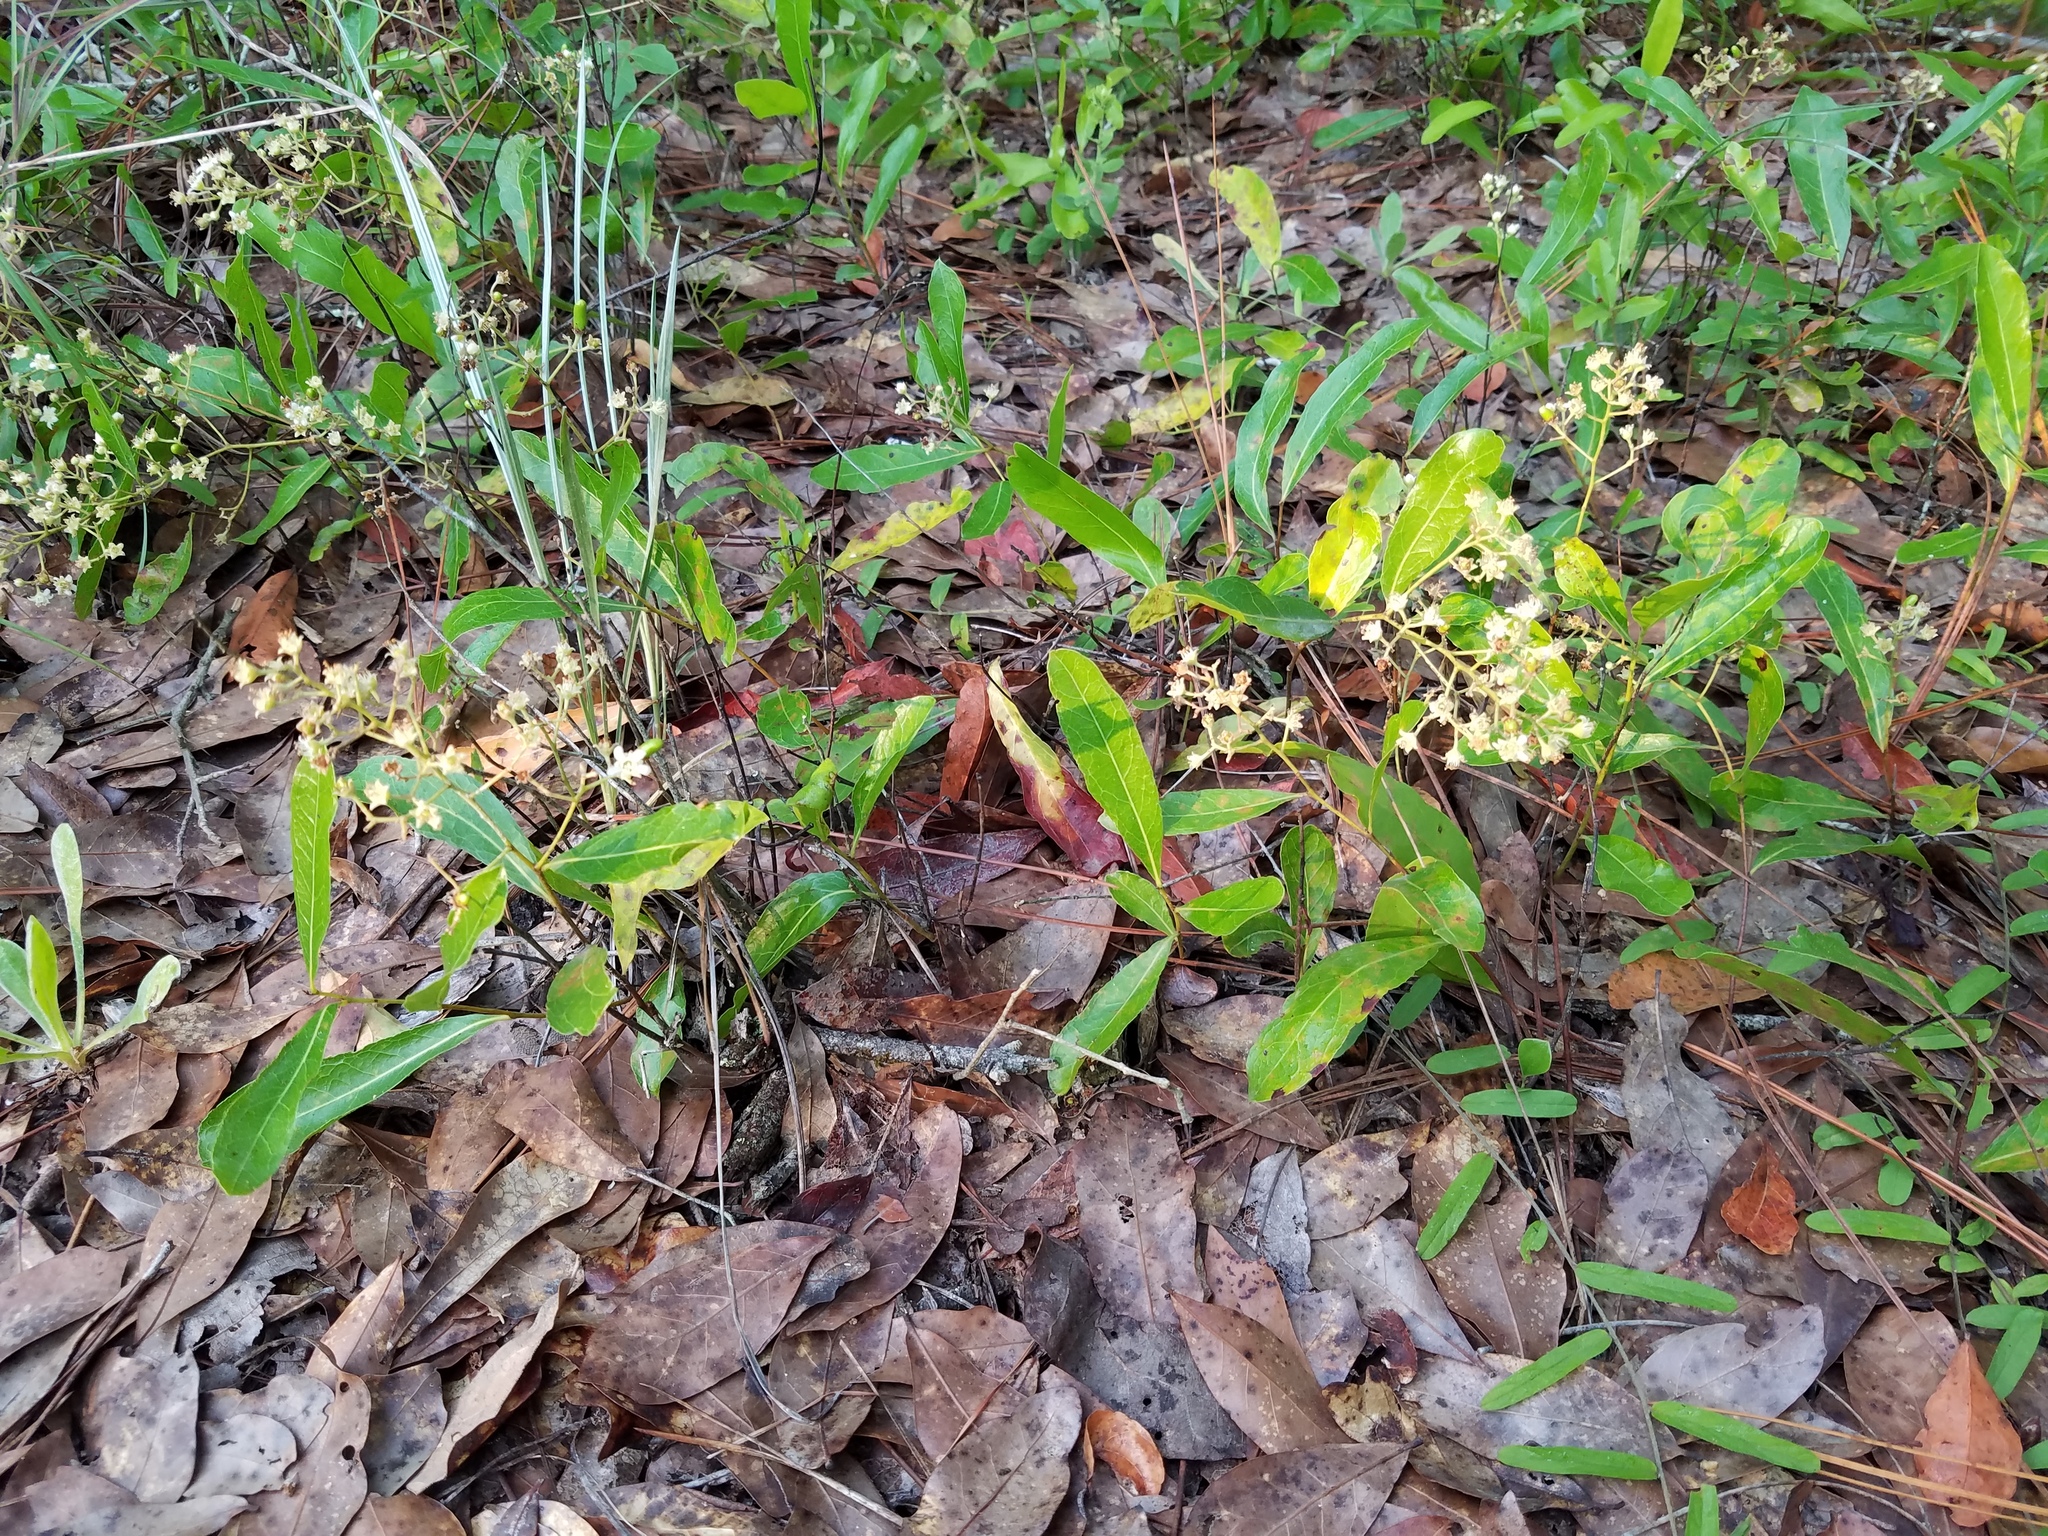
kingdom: Plantae
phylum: Tracheophyta
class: Magnoliopsida
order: Malpighiales
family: Chrysobalanaceae
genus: Geobalanus
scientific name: Geobalanus oblongifolius
